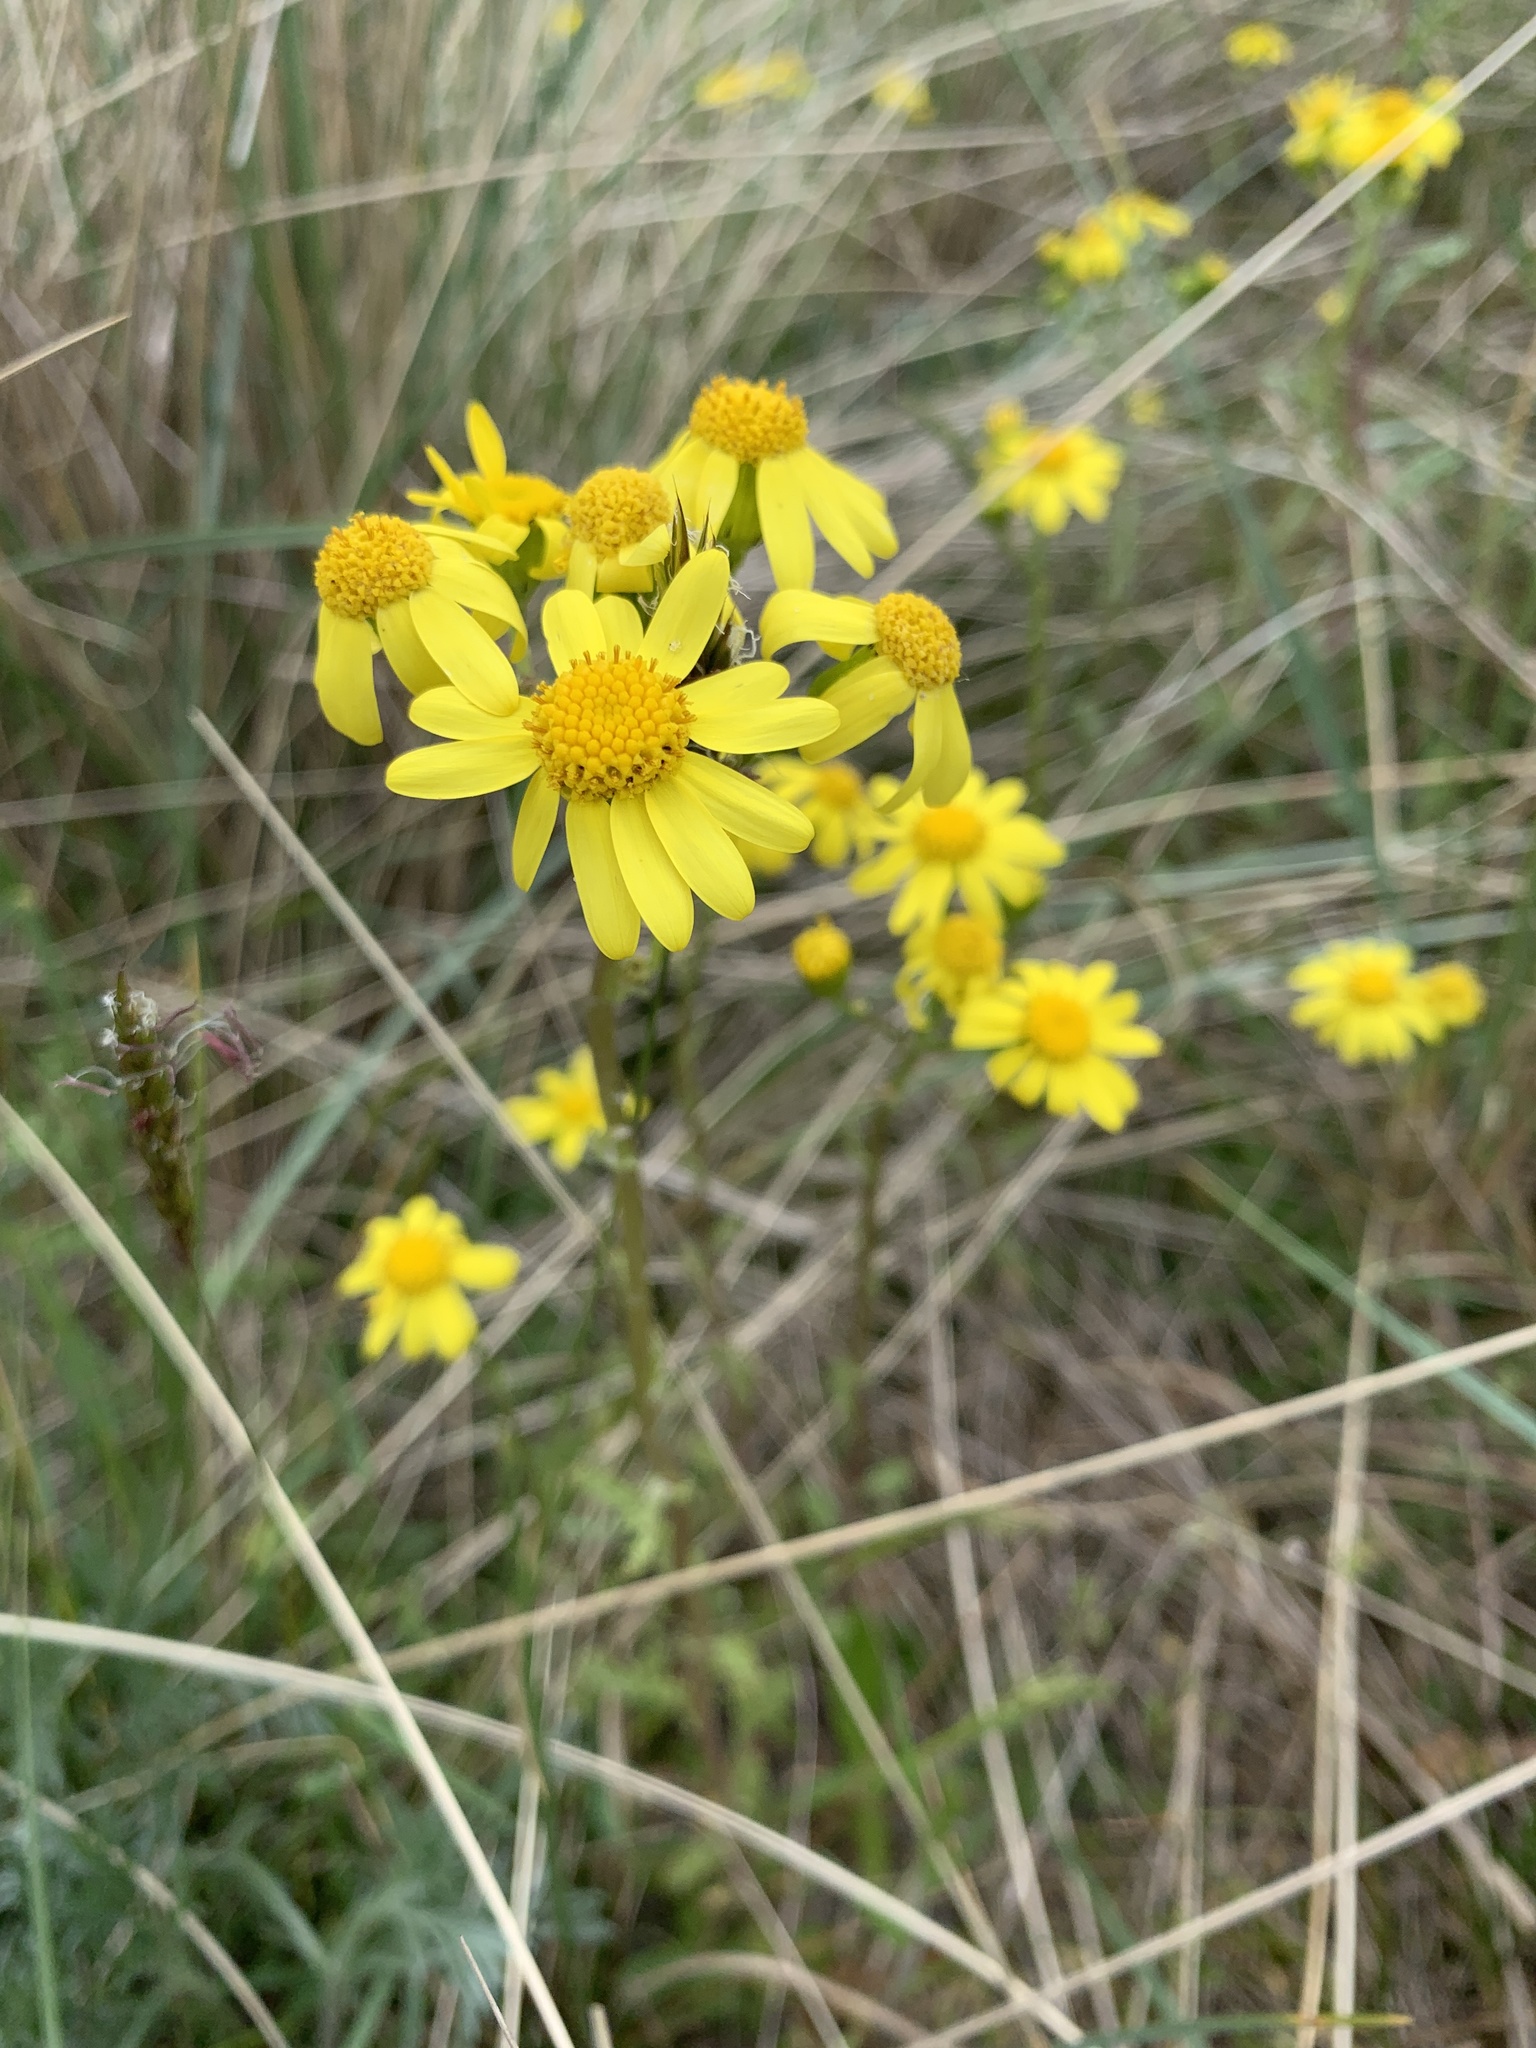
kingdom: Plantae
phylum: Tracheophyta
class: Magnoliopsida
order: Asterales
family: Asteraceae
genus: Senecio
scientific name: Senecio vernalis
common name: Eastern groundsel
